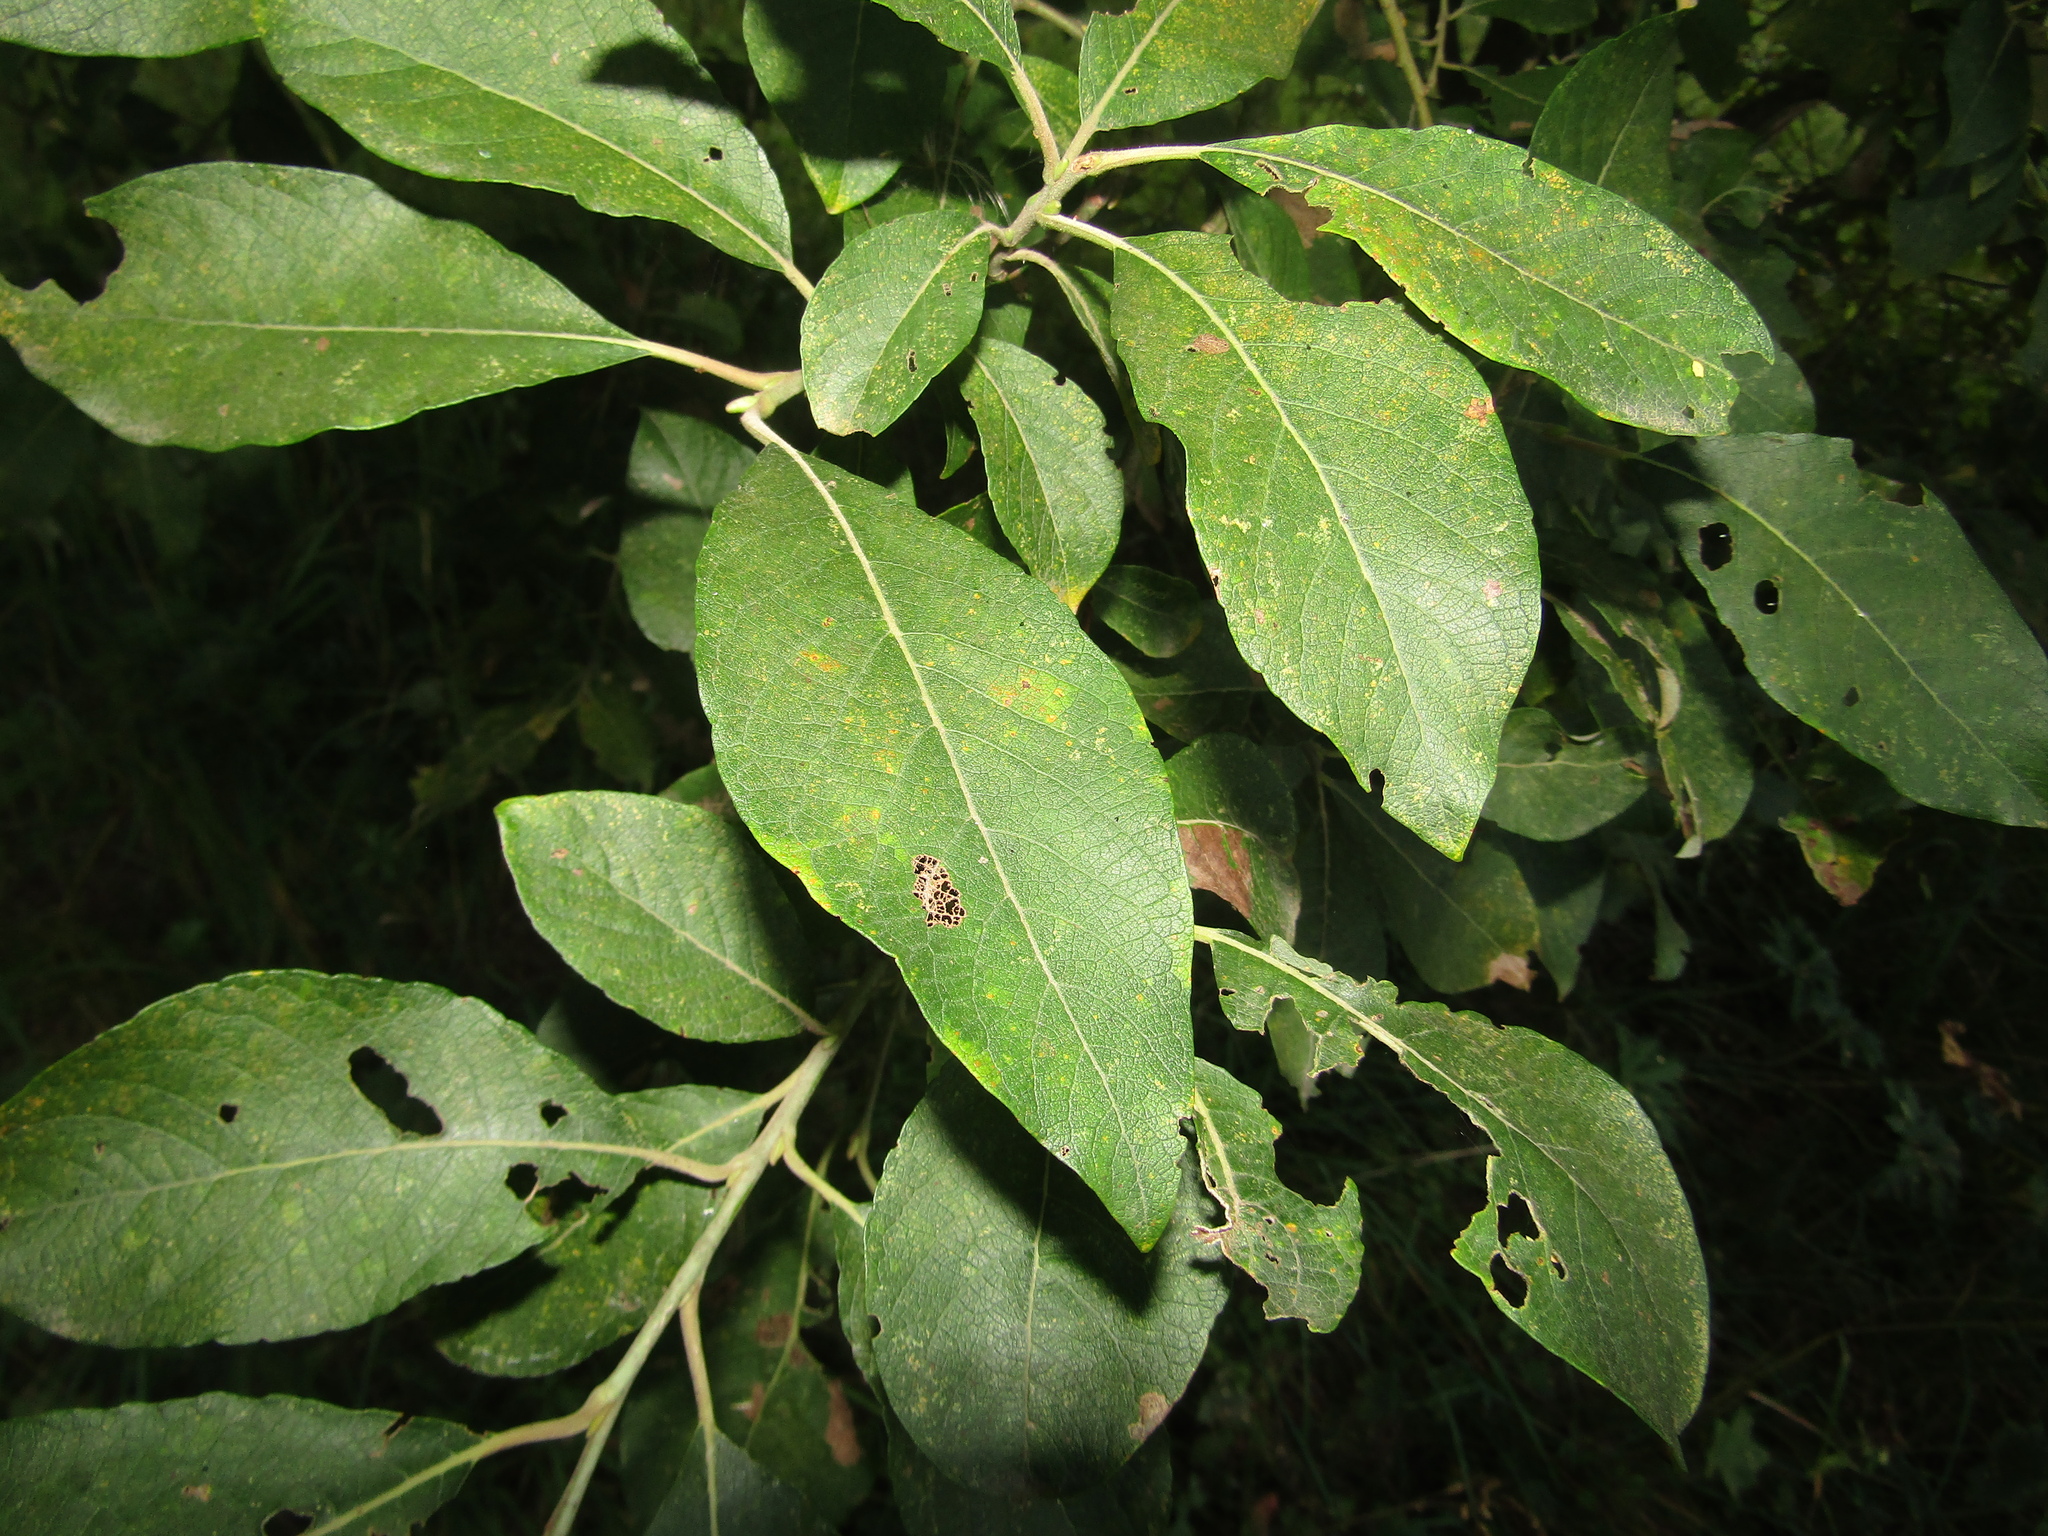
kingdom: Plantae
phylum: Tracheophyta
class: Magnoliopsida
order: Malpighiales
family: Salicaceae
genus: Salix
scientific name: Salix caprea
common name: Goat willow
